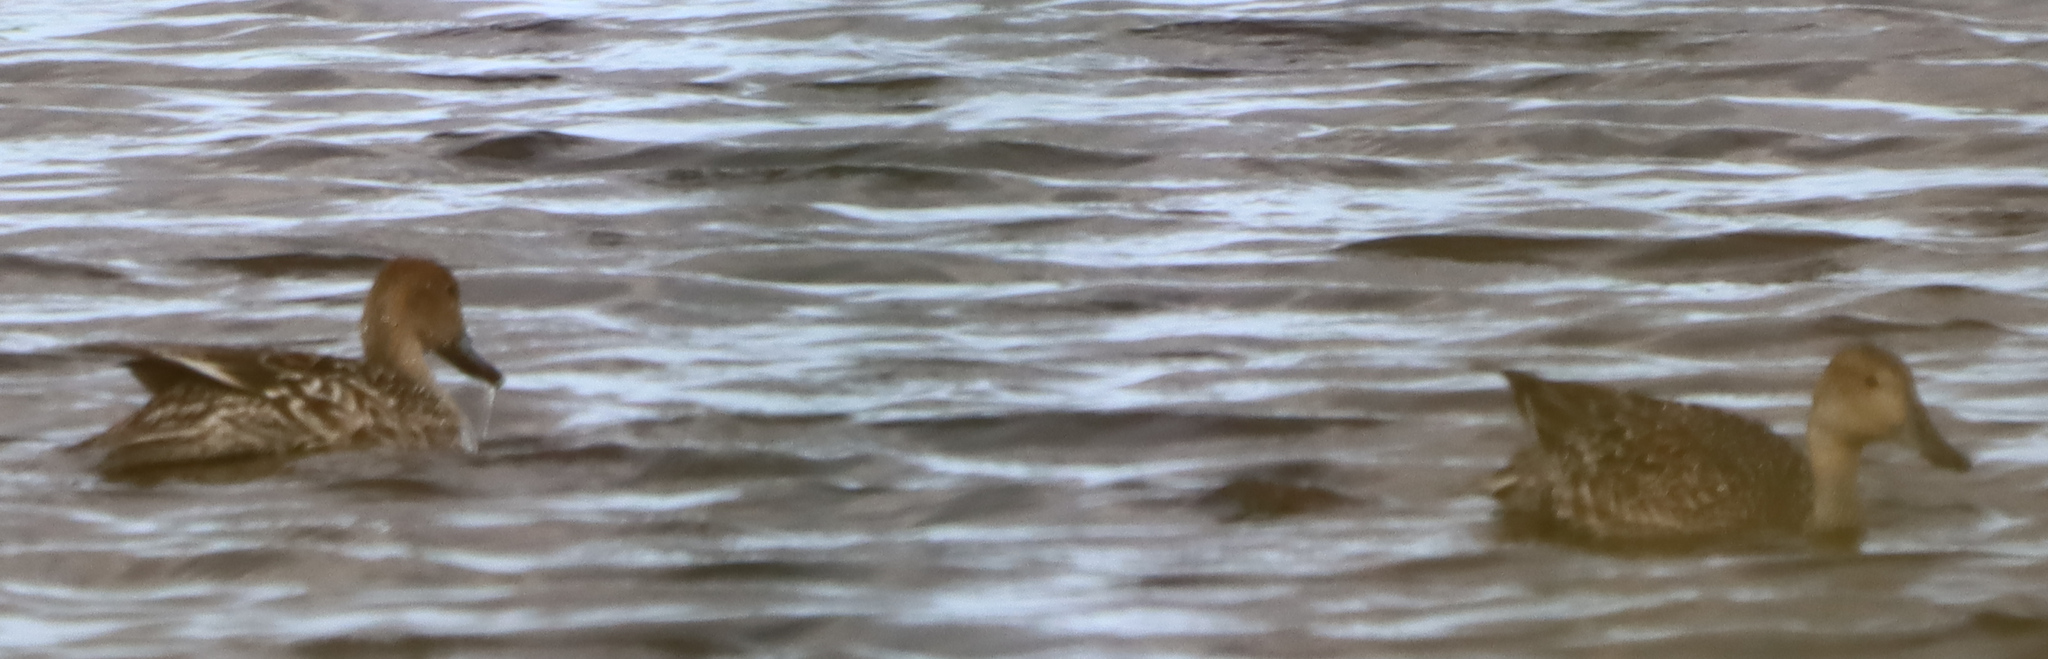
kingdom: Animalia
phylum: Chordata
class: Aves
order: Anseriformes
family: Anatidae
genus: Anas
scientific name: Anas acuta
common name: Northern pintail
